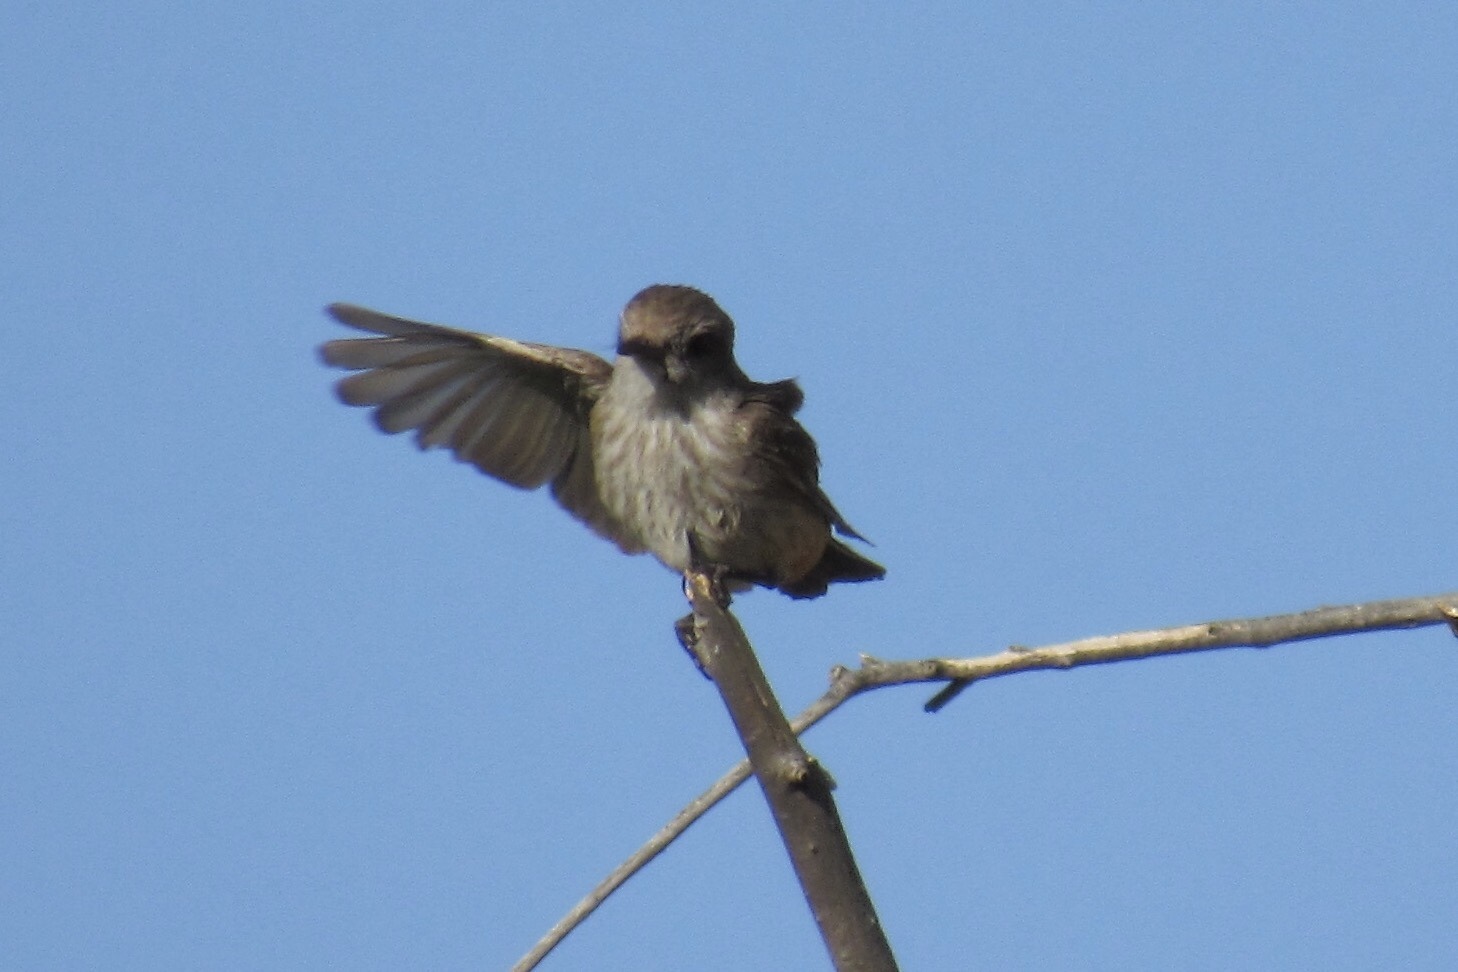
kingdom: Animalia
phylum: Chordata
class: Aves
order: Passeriformes
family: Tyrannidae
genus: Pyrocephalus
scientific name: Pyrocephalus rubinus
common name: Vermilion flycatcher
